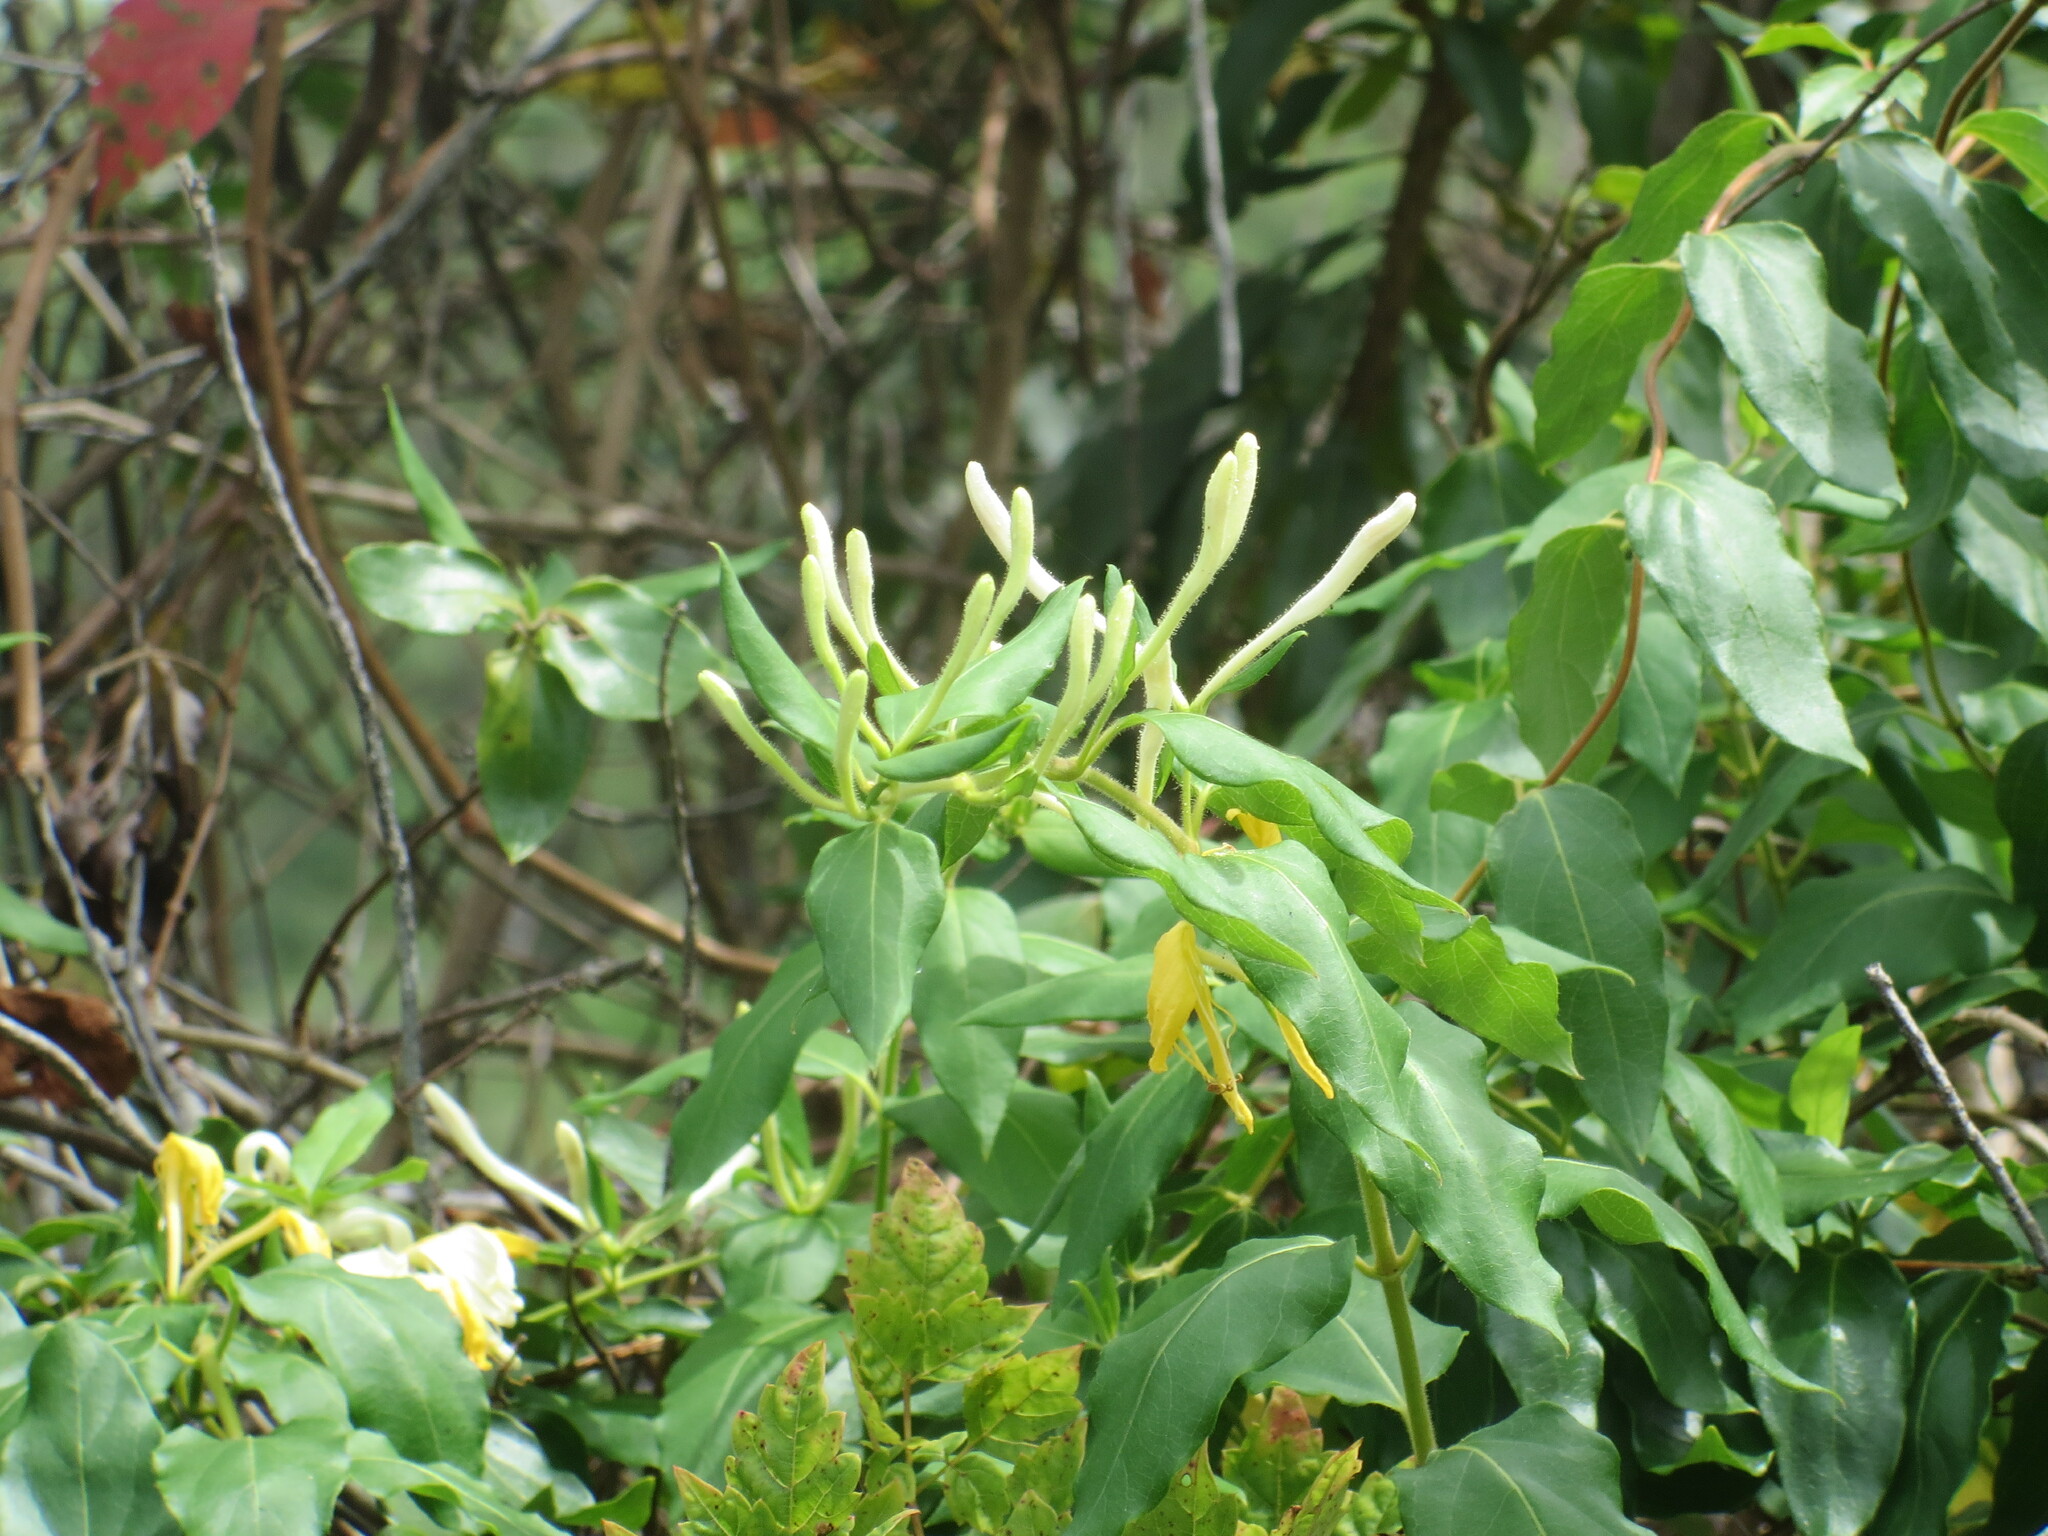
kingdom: Plantae
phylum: Tracheophyta
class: Magnoliopsida
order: Dipsacales
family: Caprifoliaceae
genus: Lonicera
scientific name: Lonicera japonica
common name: Japanese honeysuckle
